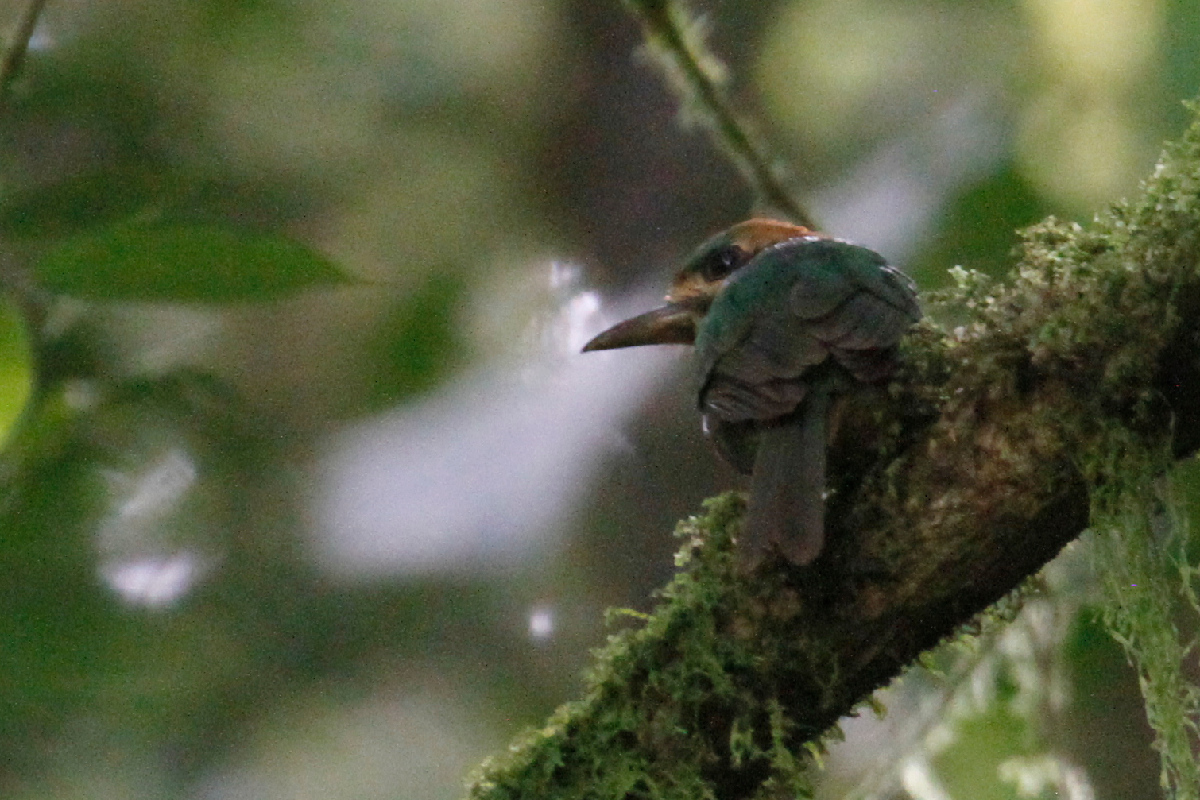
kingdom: Animalia
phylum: Chordata
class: Aves
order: Coraciiformes
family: Momotidae
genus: Hylomanes
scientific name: Hylomanes momotula
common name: Tody motmot
